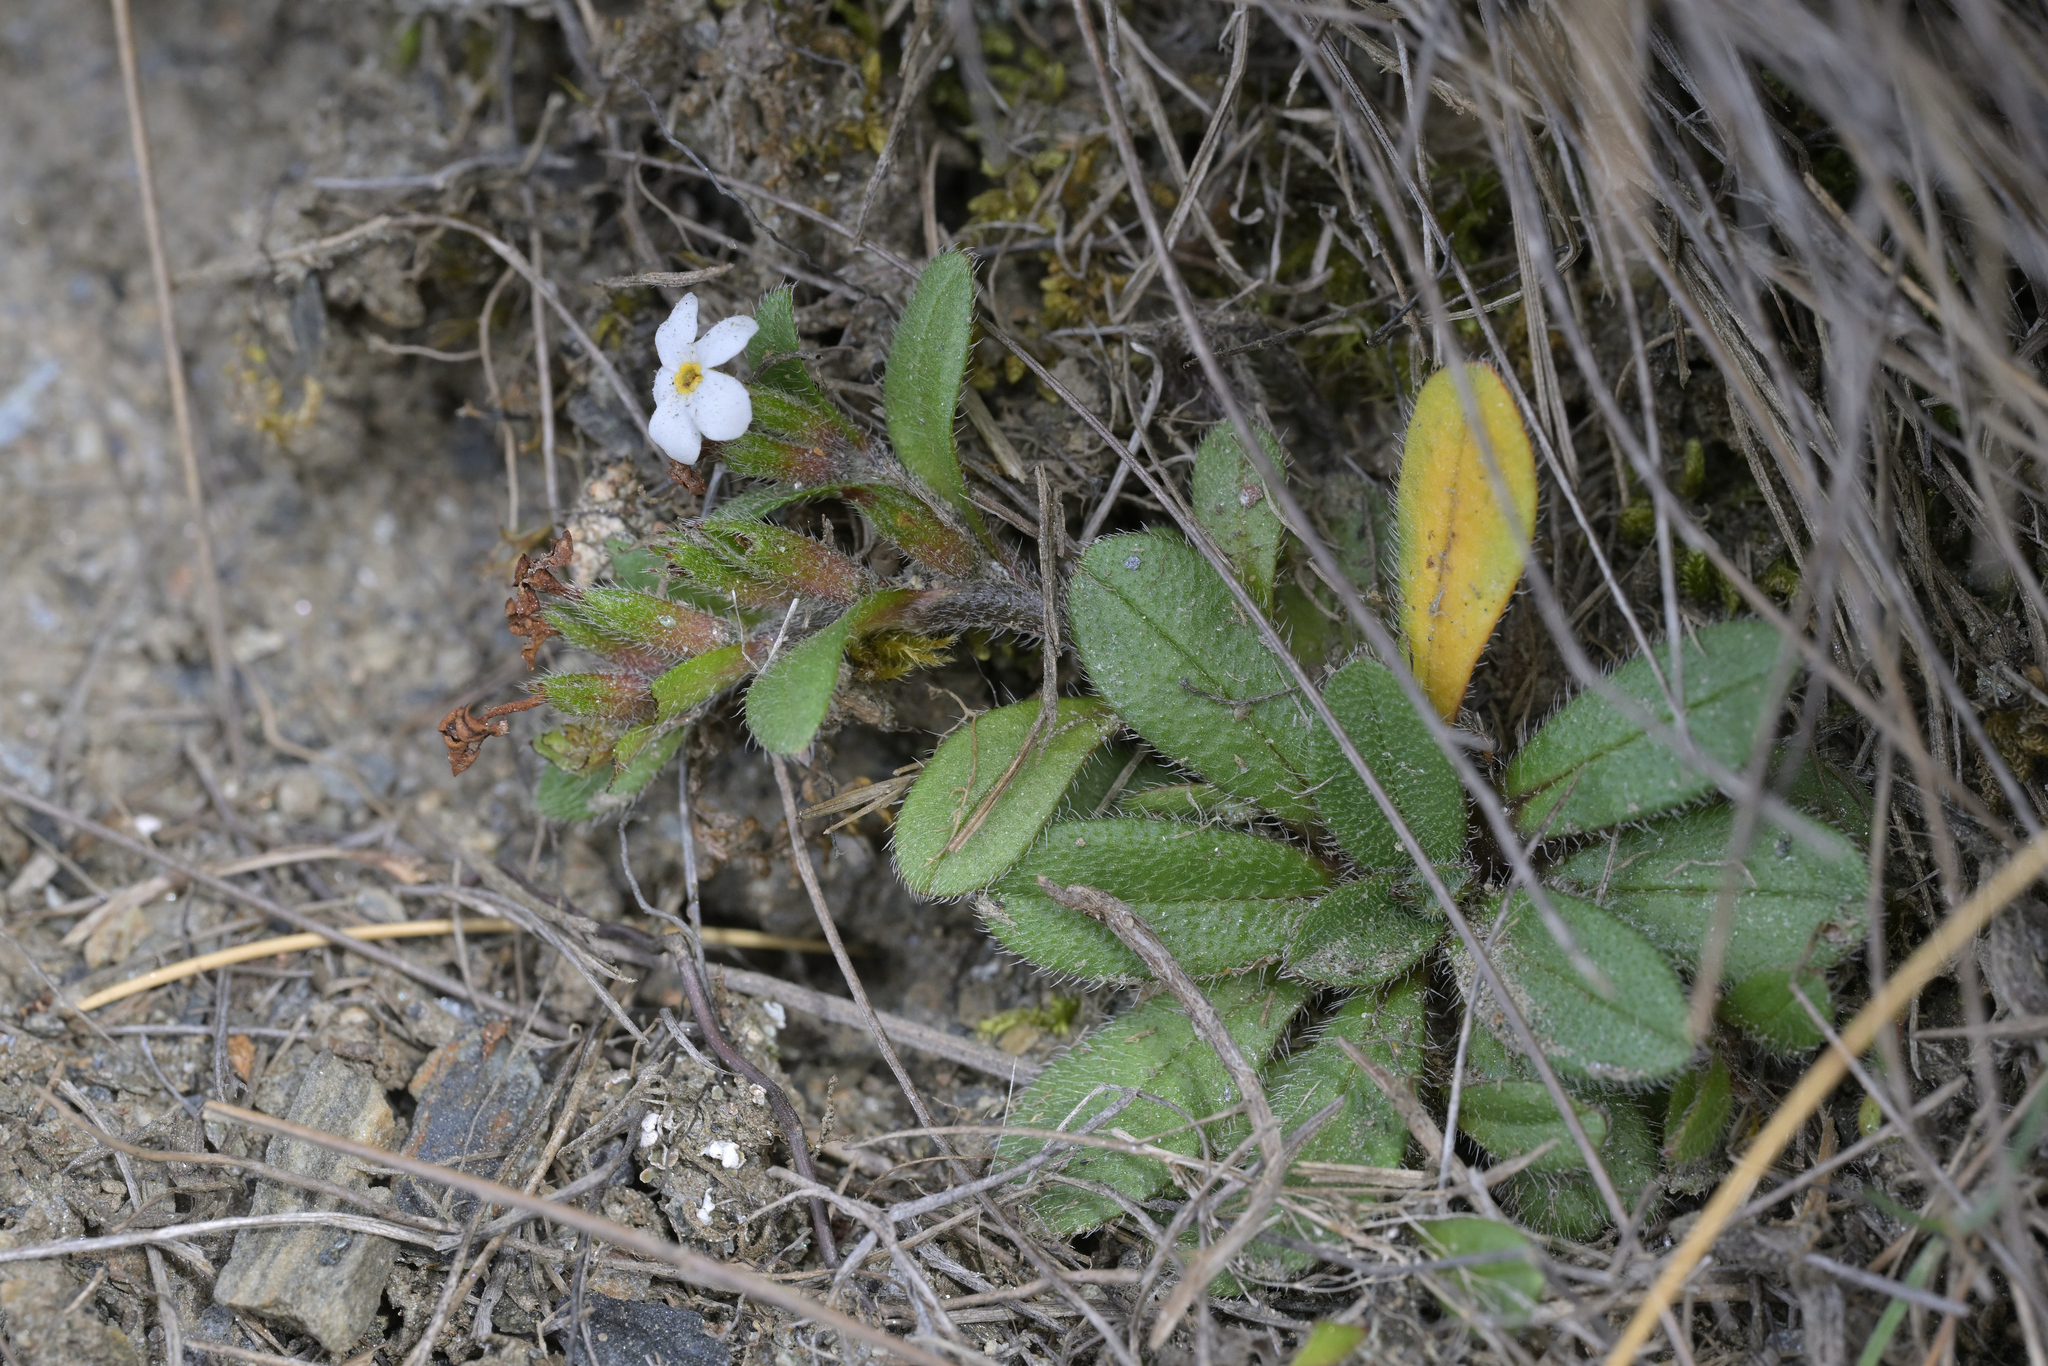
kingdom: Plantae
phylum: Tracheophyta
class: Magnoliopsida
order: Boraginales
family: Boraginaceae
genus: Myosotis
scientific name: Myosotis lyallii
